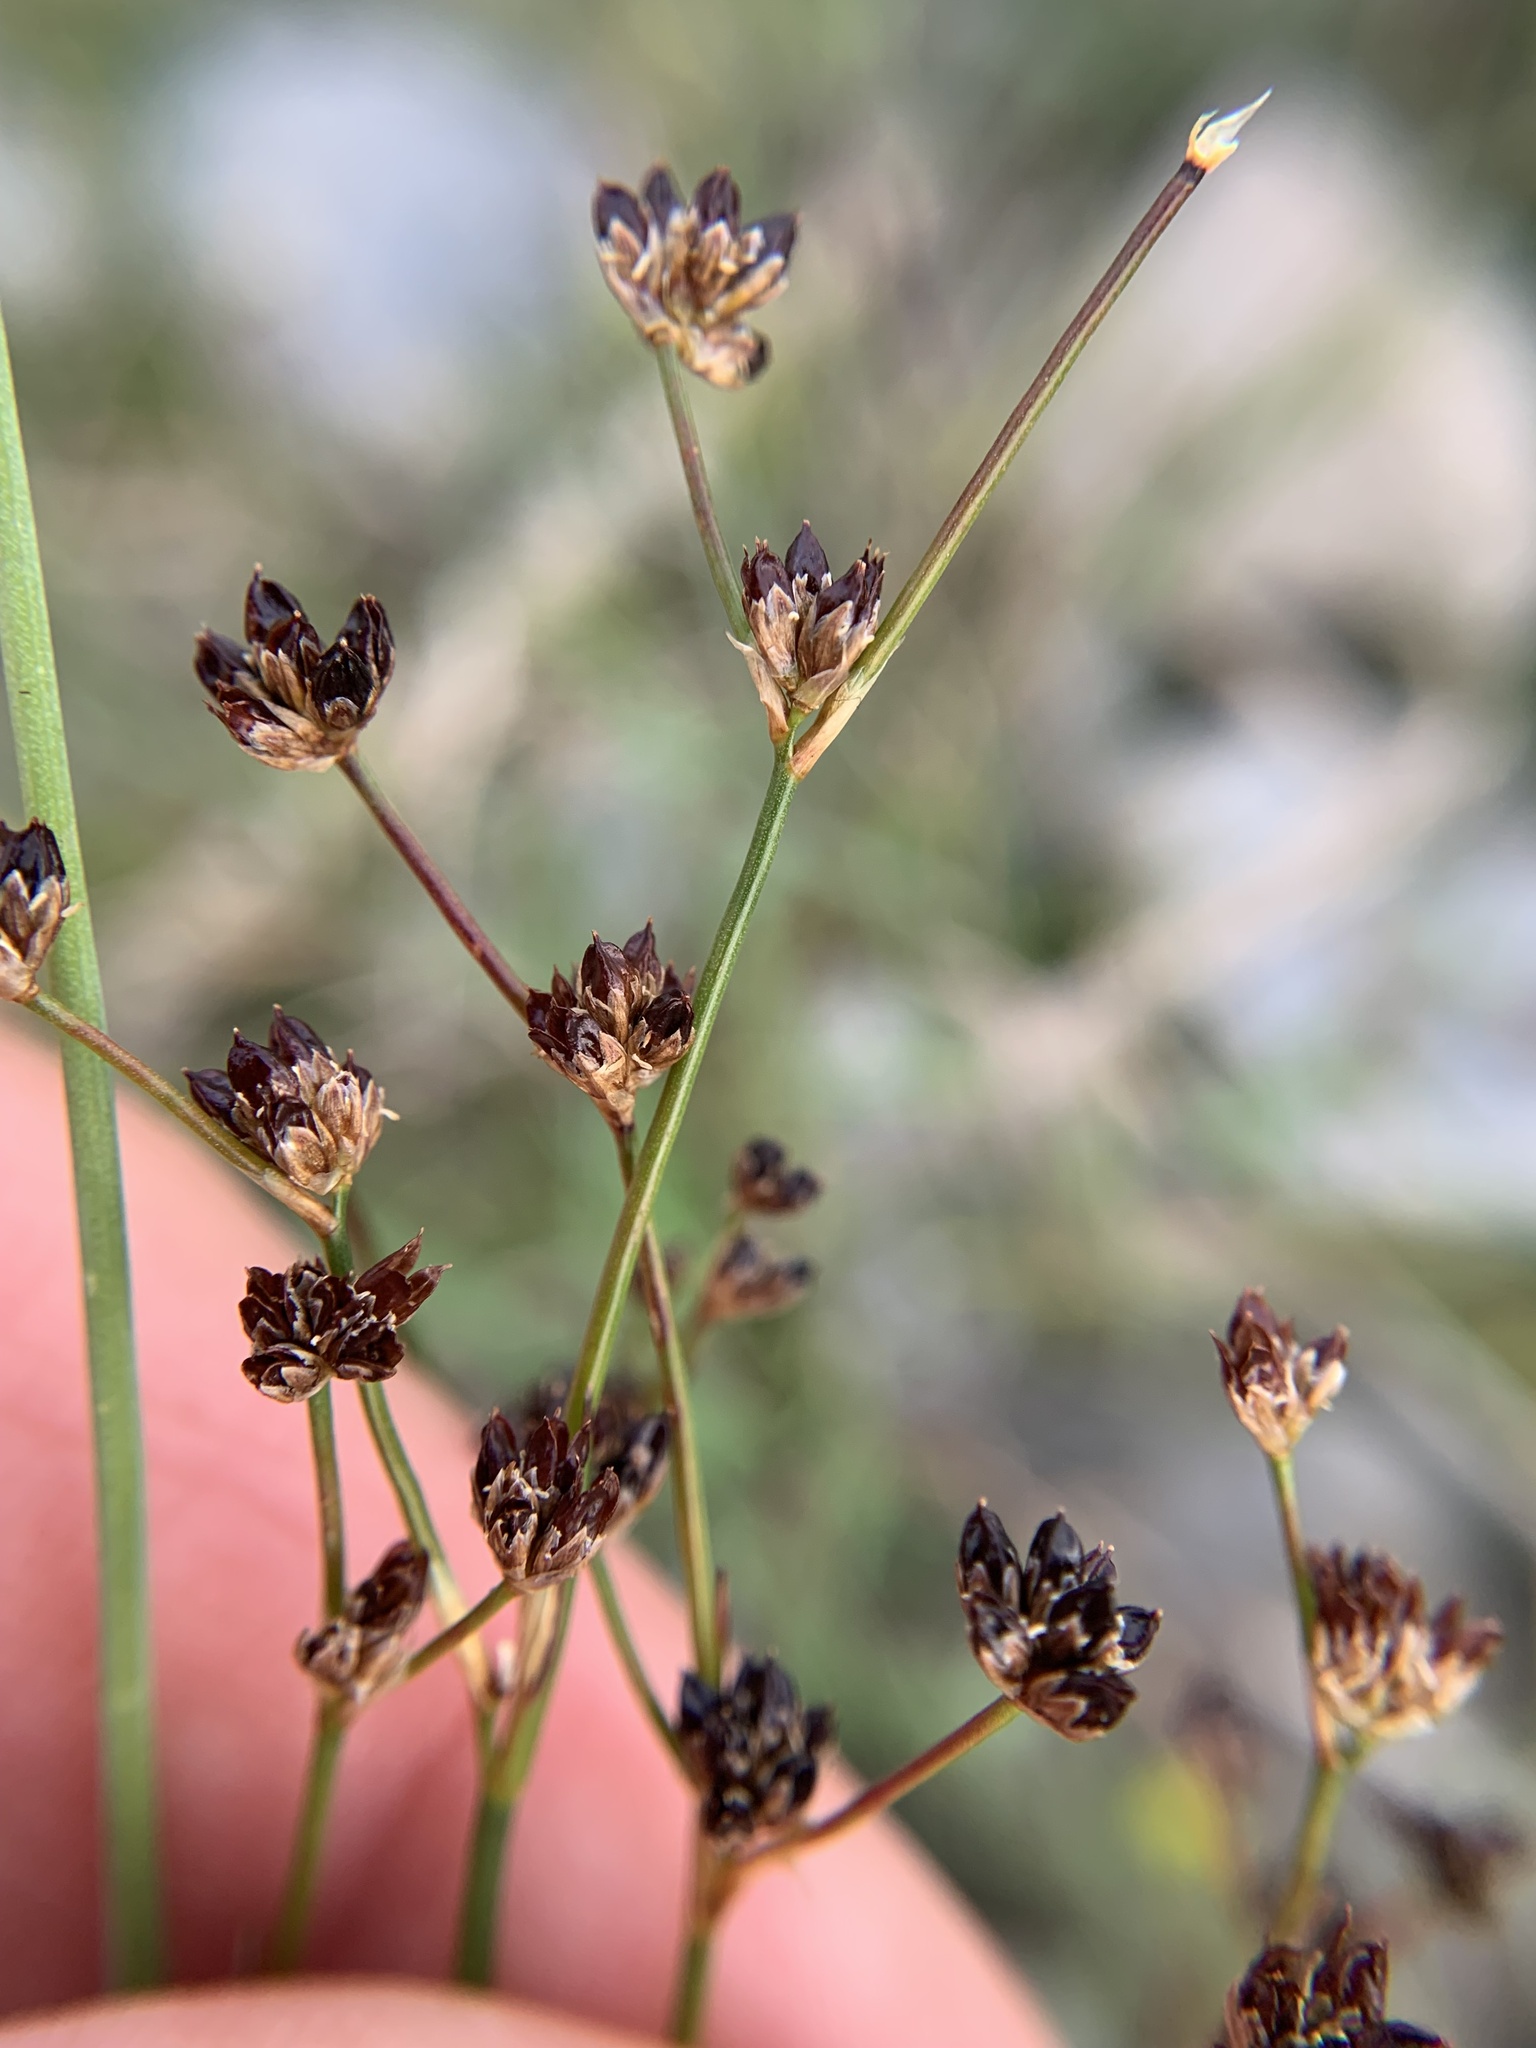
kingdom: Plantae
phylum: Tracheophyta
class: Liliopsida
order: Poales
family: Juncaceae
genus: Juncus
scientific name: Juncus articulatus
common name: Jointed rush
